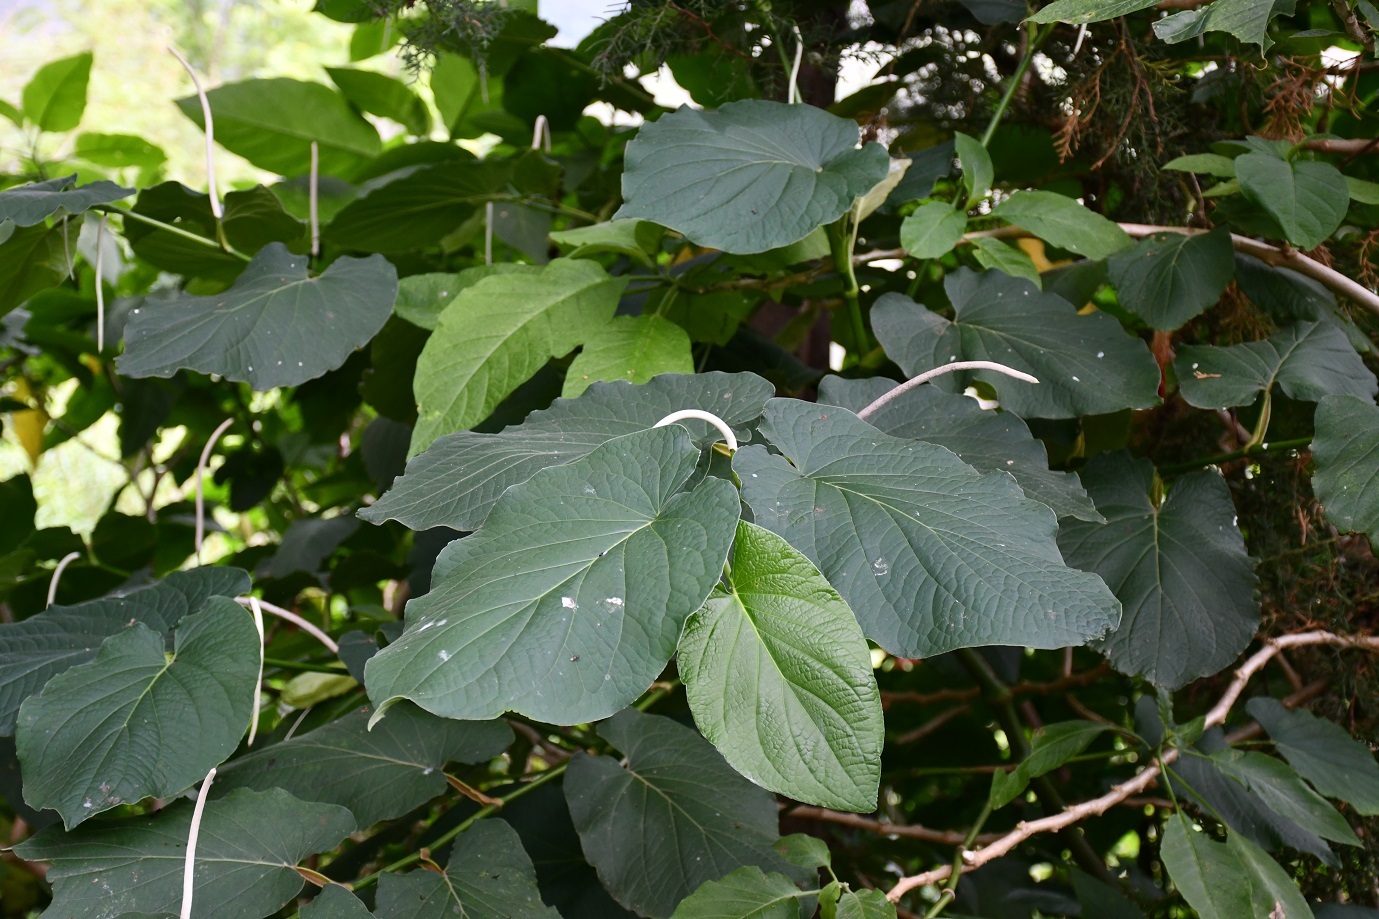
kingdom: Plantae
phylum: Tracheophyta
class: Magnoliopsida
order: Piperales
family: Piperaceae
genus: Piper
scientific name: Piper auritum
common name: Vera cruz pepper
